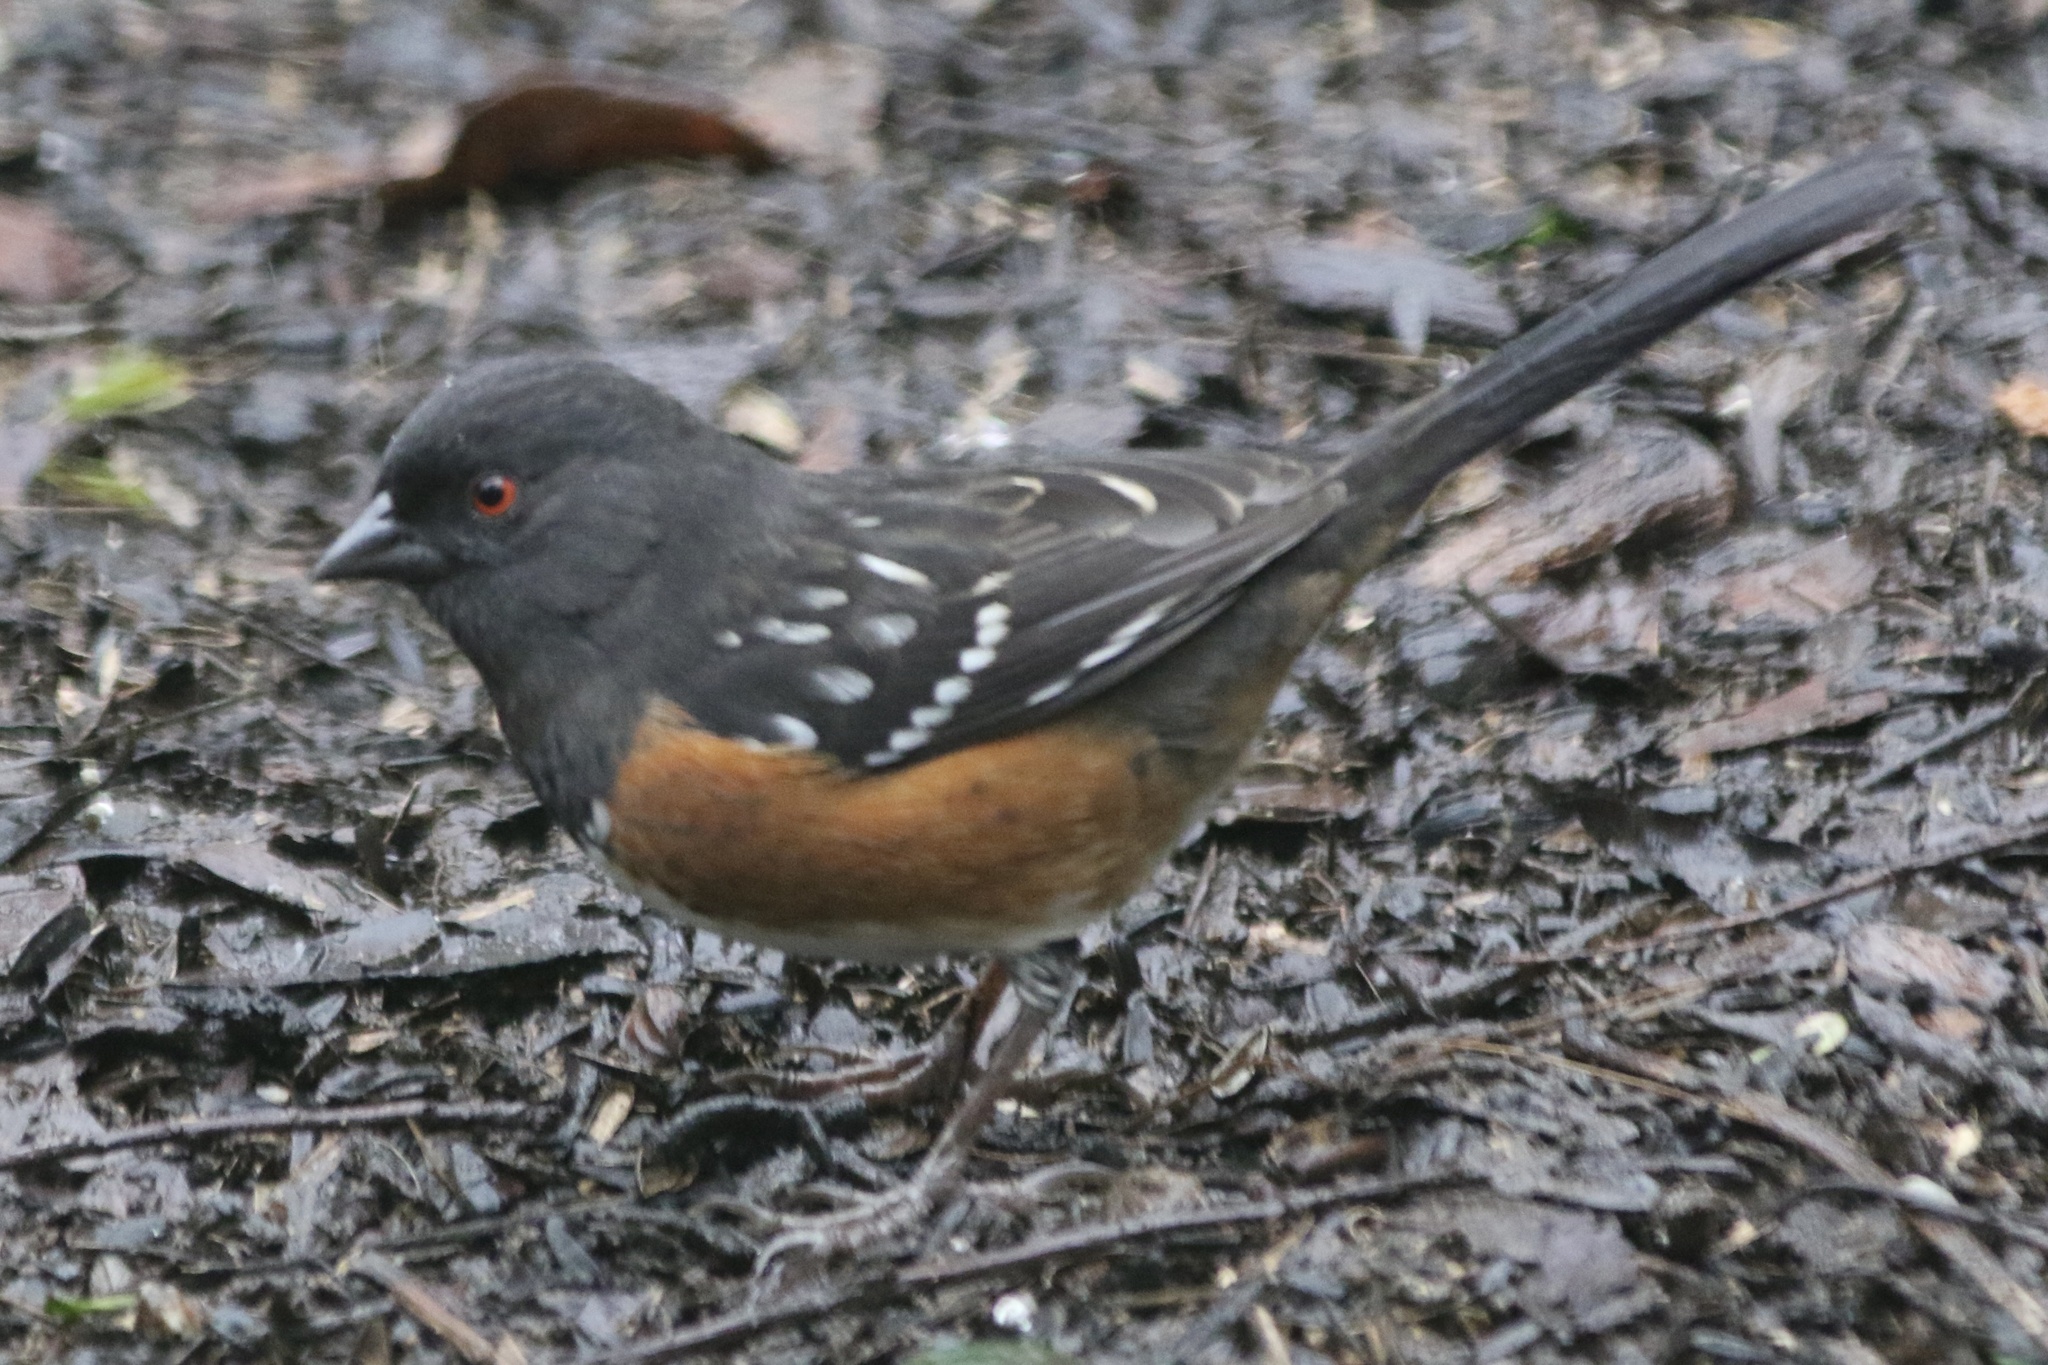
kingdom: Animalia
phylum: Chordata
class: Aves
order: Passeriformes
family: Passerellidae
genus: Pipilo
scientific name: Pipilo maculatus
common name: Spotted towhee
